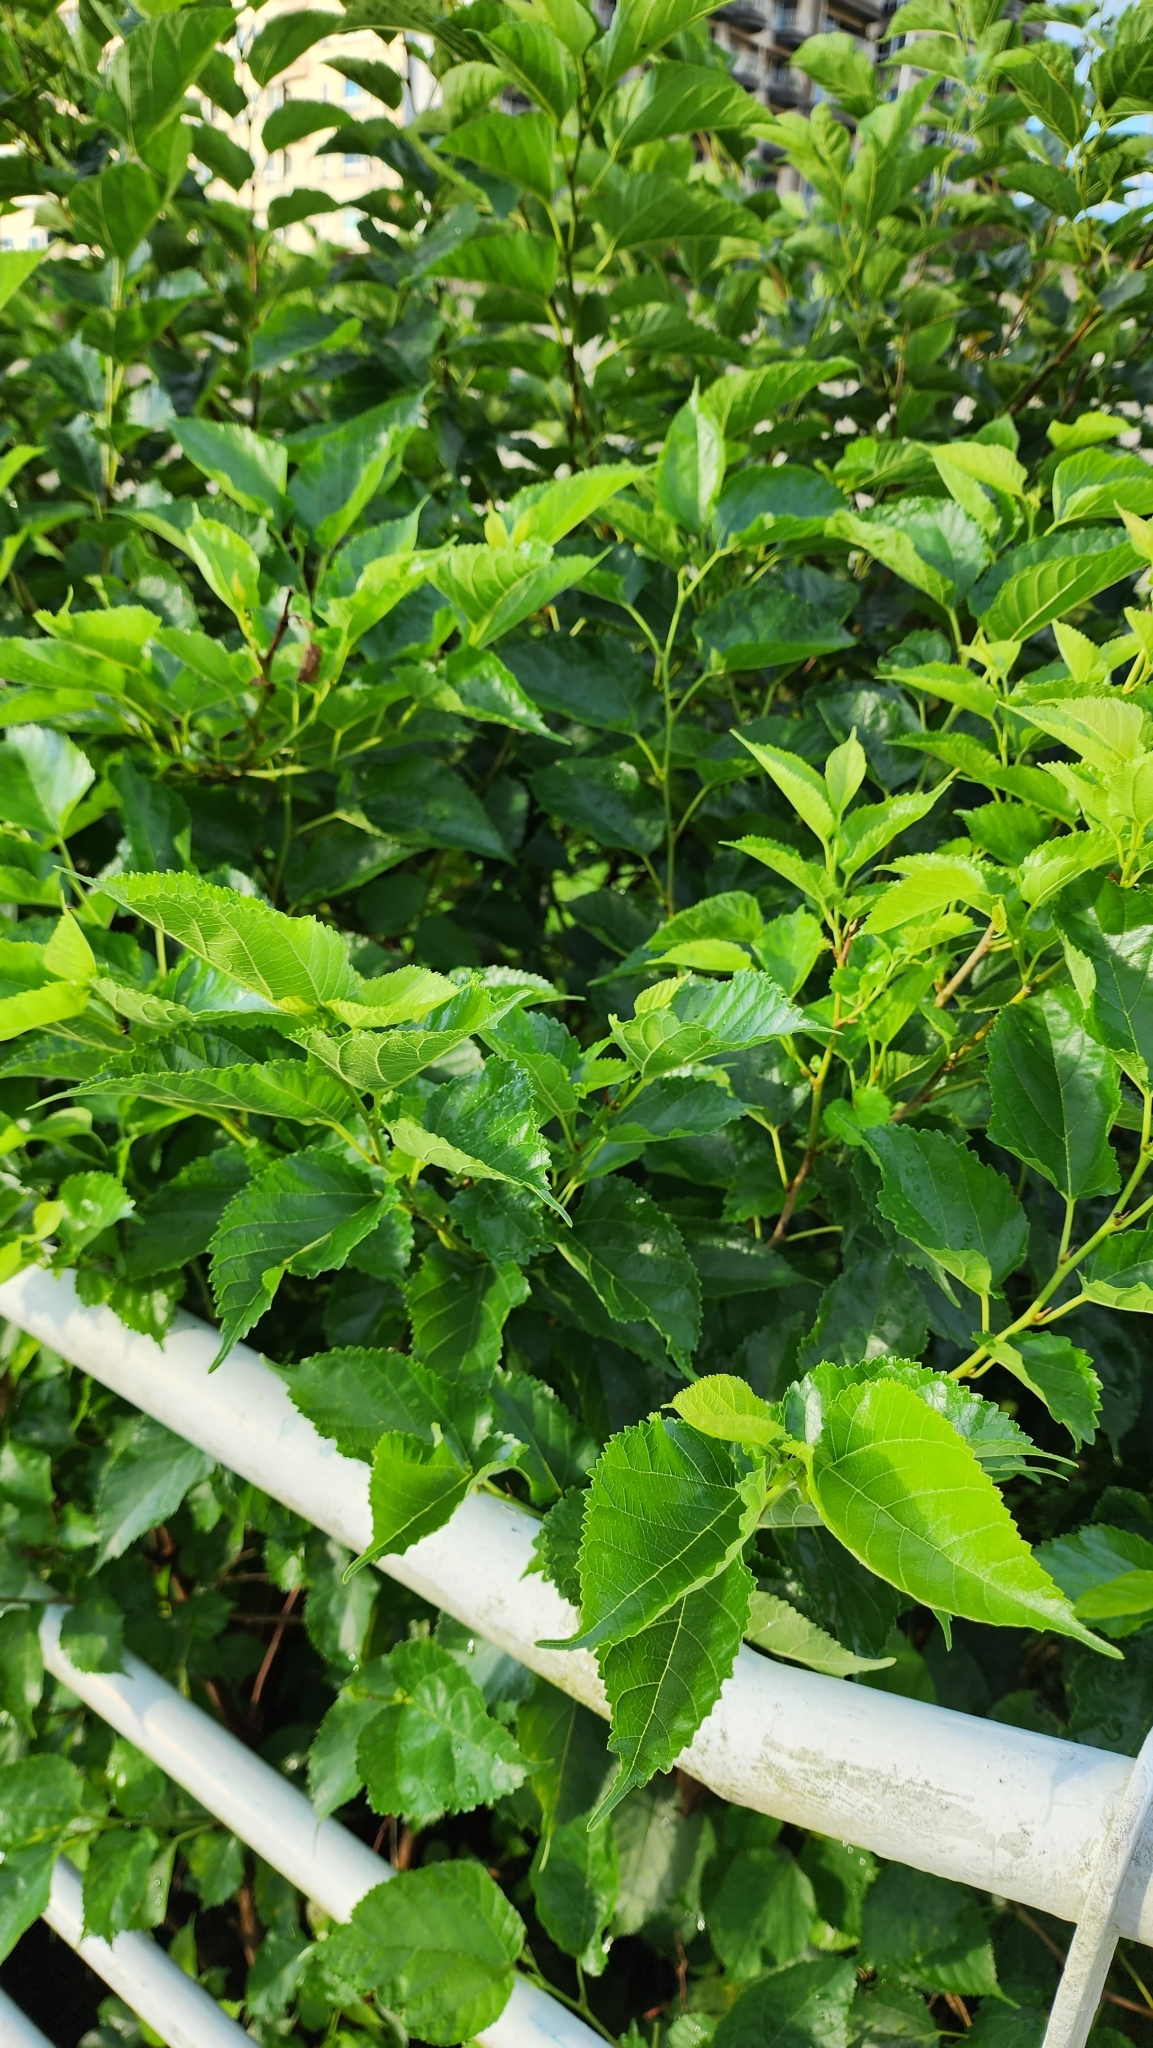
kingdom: Plantae
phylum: Tracheophyta
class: Magnoliopsida
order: Rosales
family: Moraceae
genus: Morus
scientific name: Morus indica
